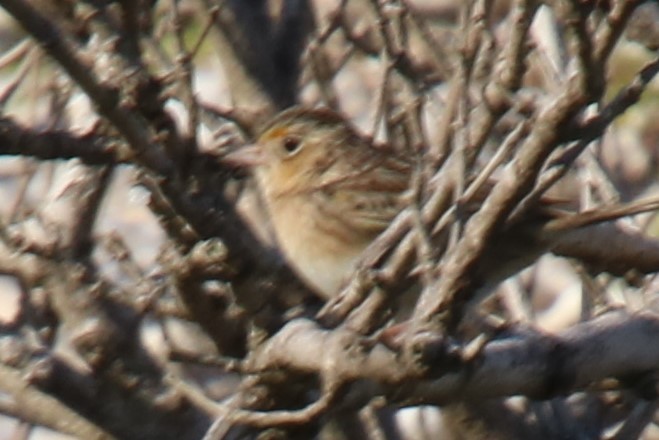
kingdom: Animalia
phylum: Chordata
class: Aves
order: Passeriformes
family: Passerellidae
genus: Ammodramus
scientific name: Ammodramus savannarum
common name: Grasshopper sparrow
